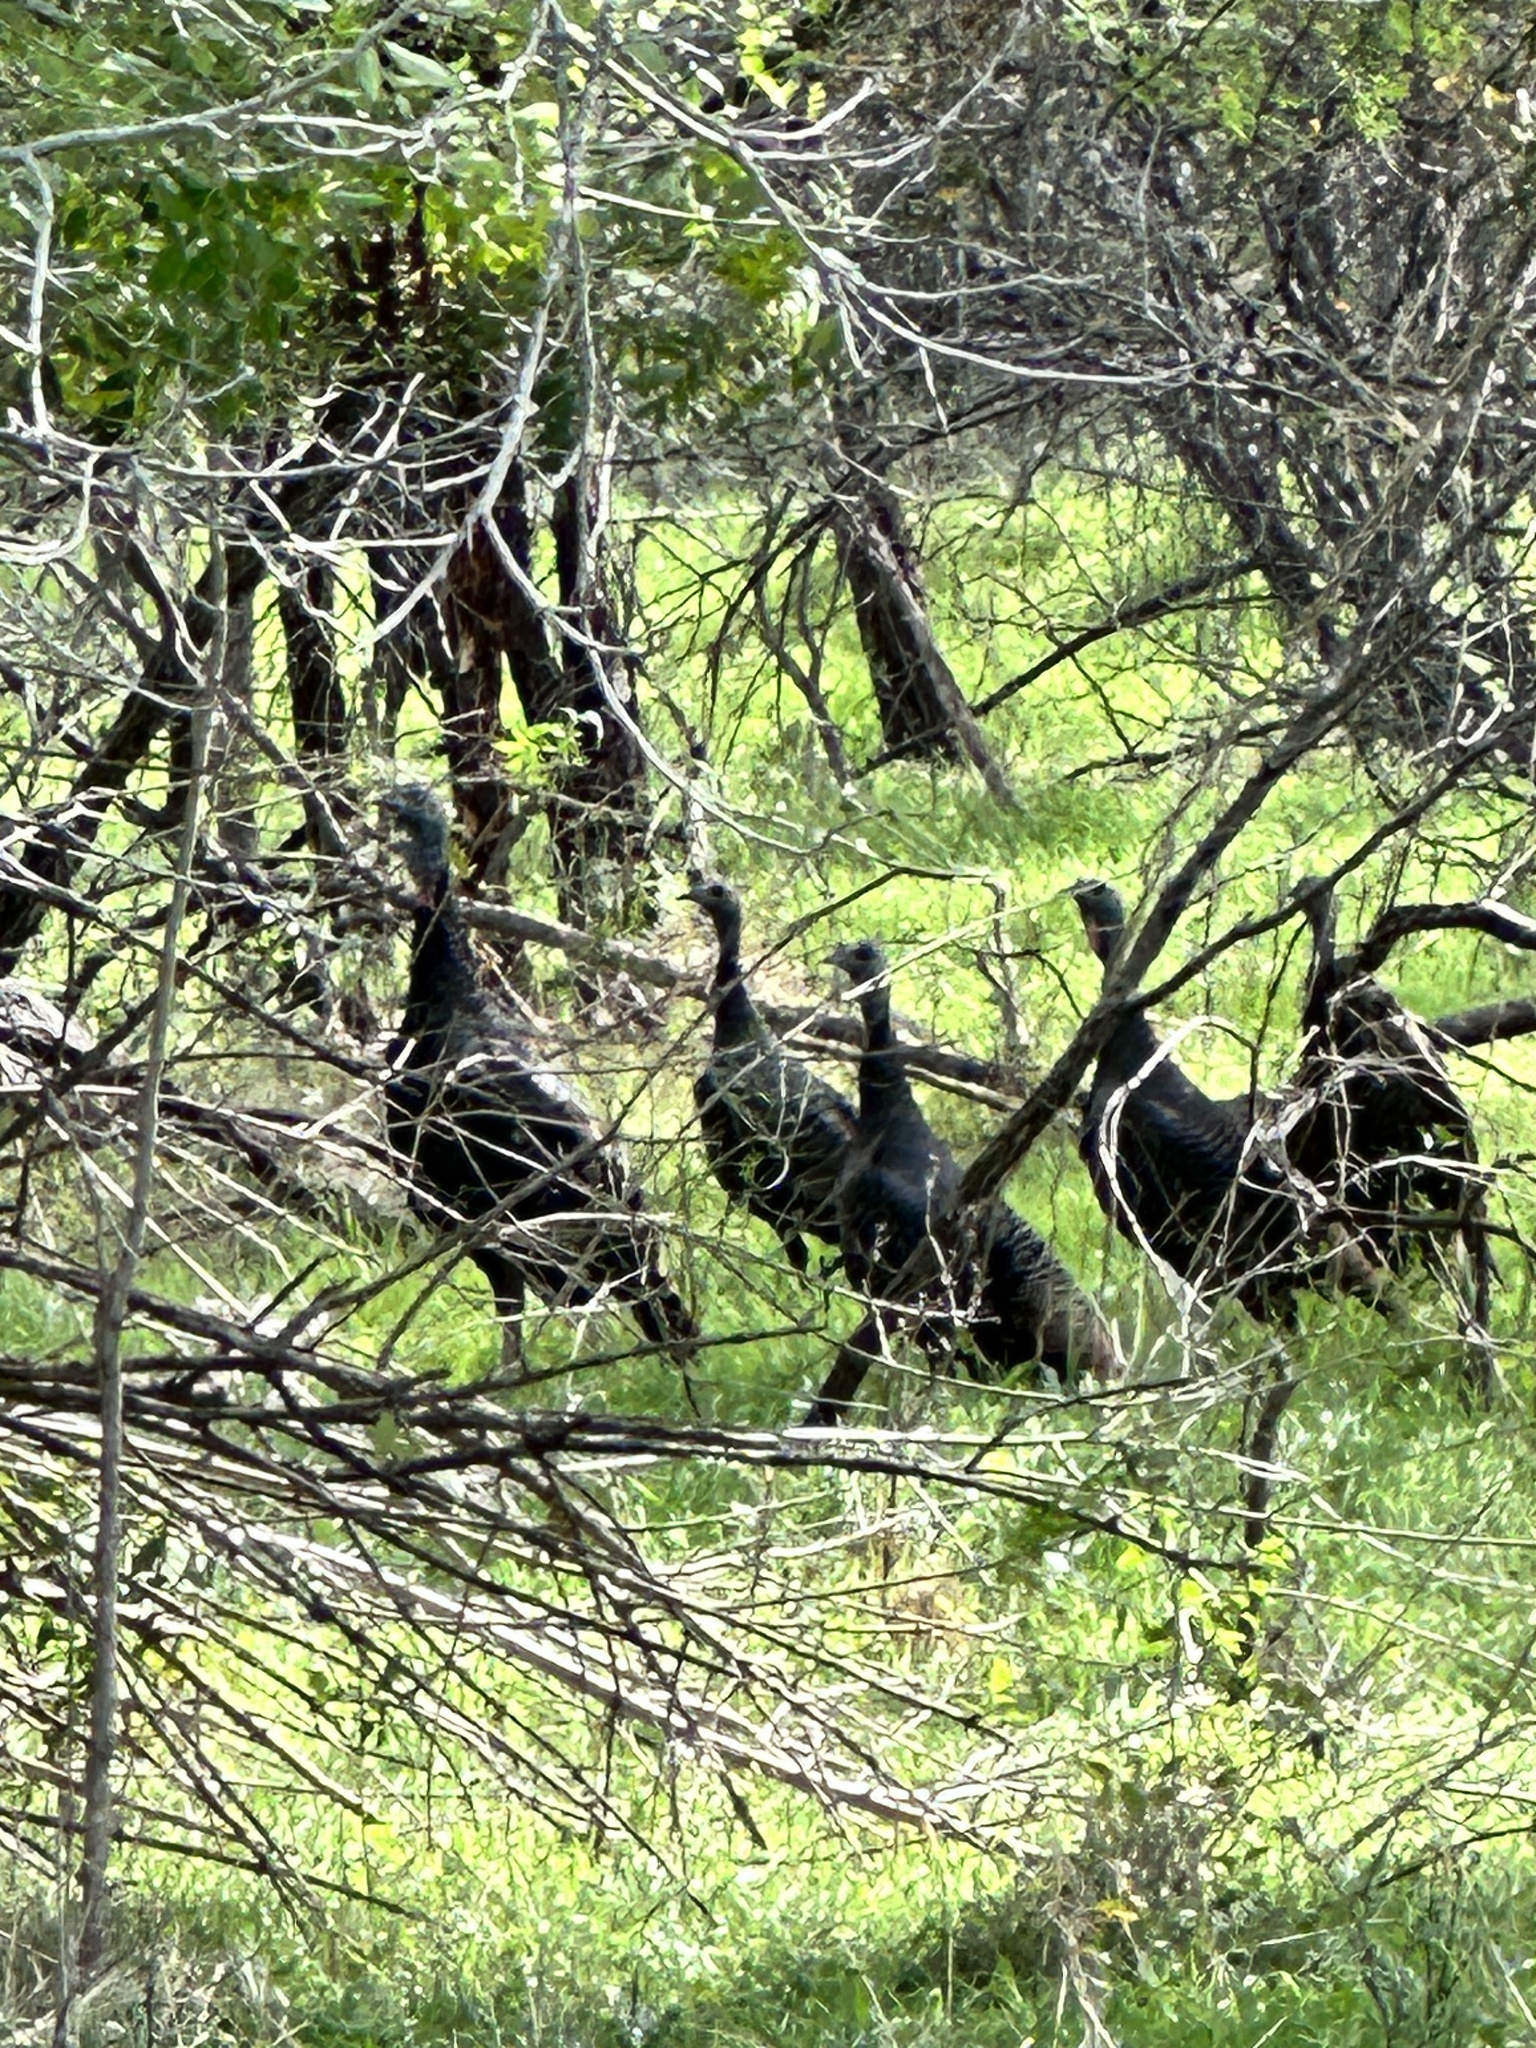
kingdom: Animalia
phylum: Chordata
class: Aves
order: Galliformes
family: Phasianidae
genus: Meleagris
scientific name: Meleagris gallopavo
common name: Wild turkey
